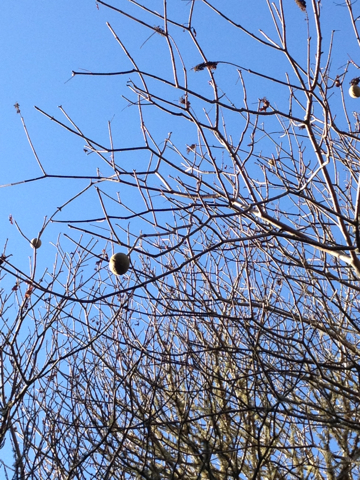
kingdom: Plantae
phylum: Tracheophyta
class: Magnoliopsida
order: Sapindales
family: Sapindaceae
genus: Aesculus
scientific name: Aesculus californica
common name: California buckeye
